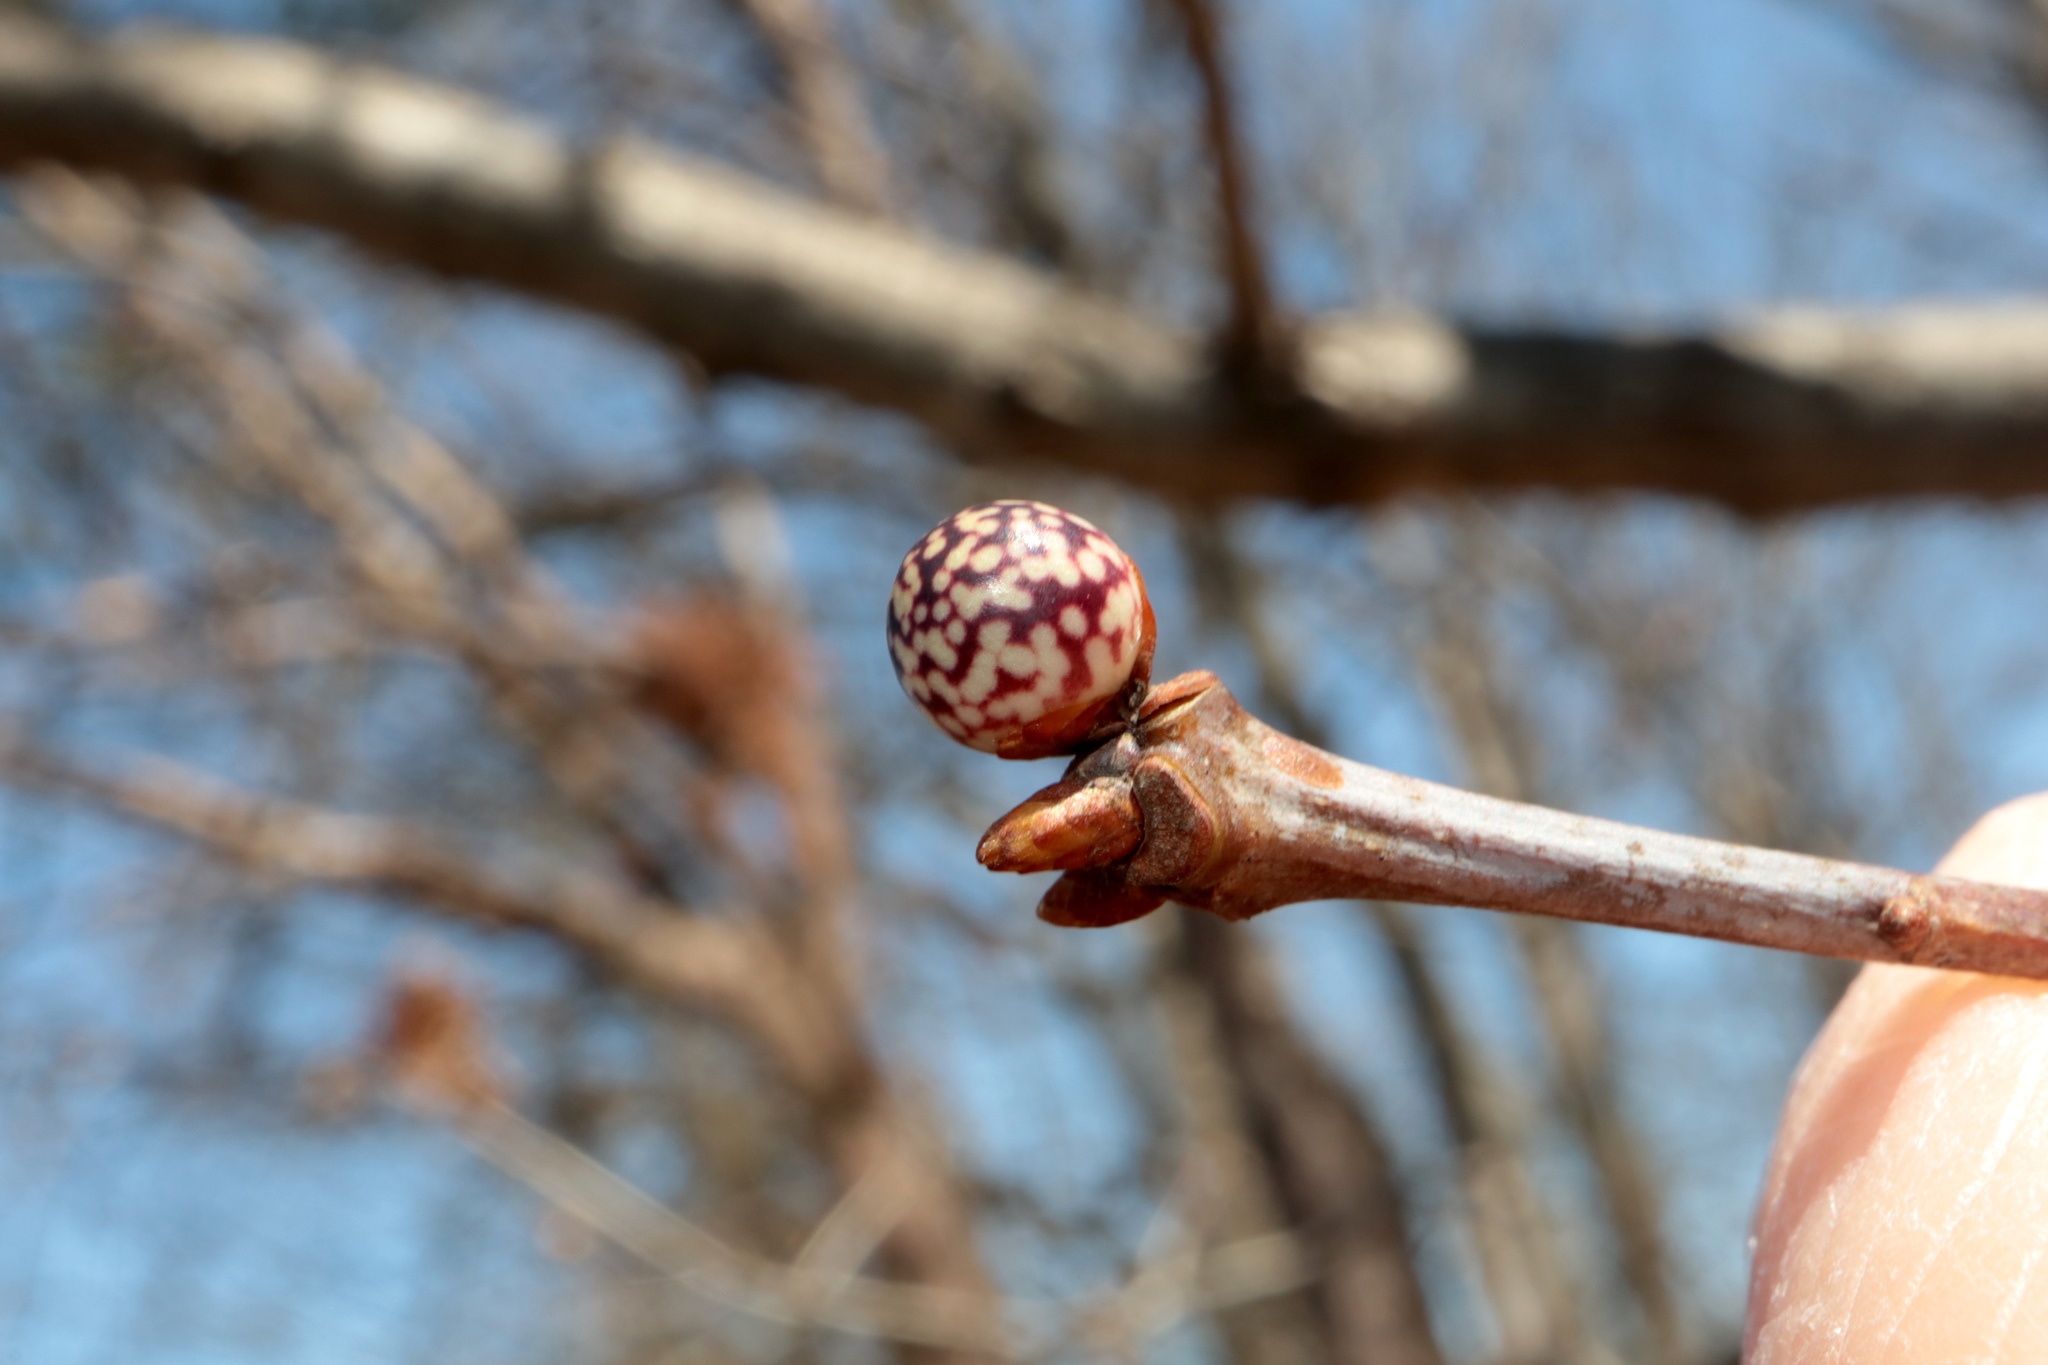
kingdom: Animalia
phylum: Arthropoda
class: Insecta
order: Hymenoptera
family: Cynipidae
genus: Andricus
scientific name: Andricus
